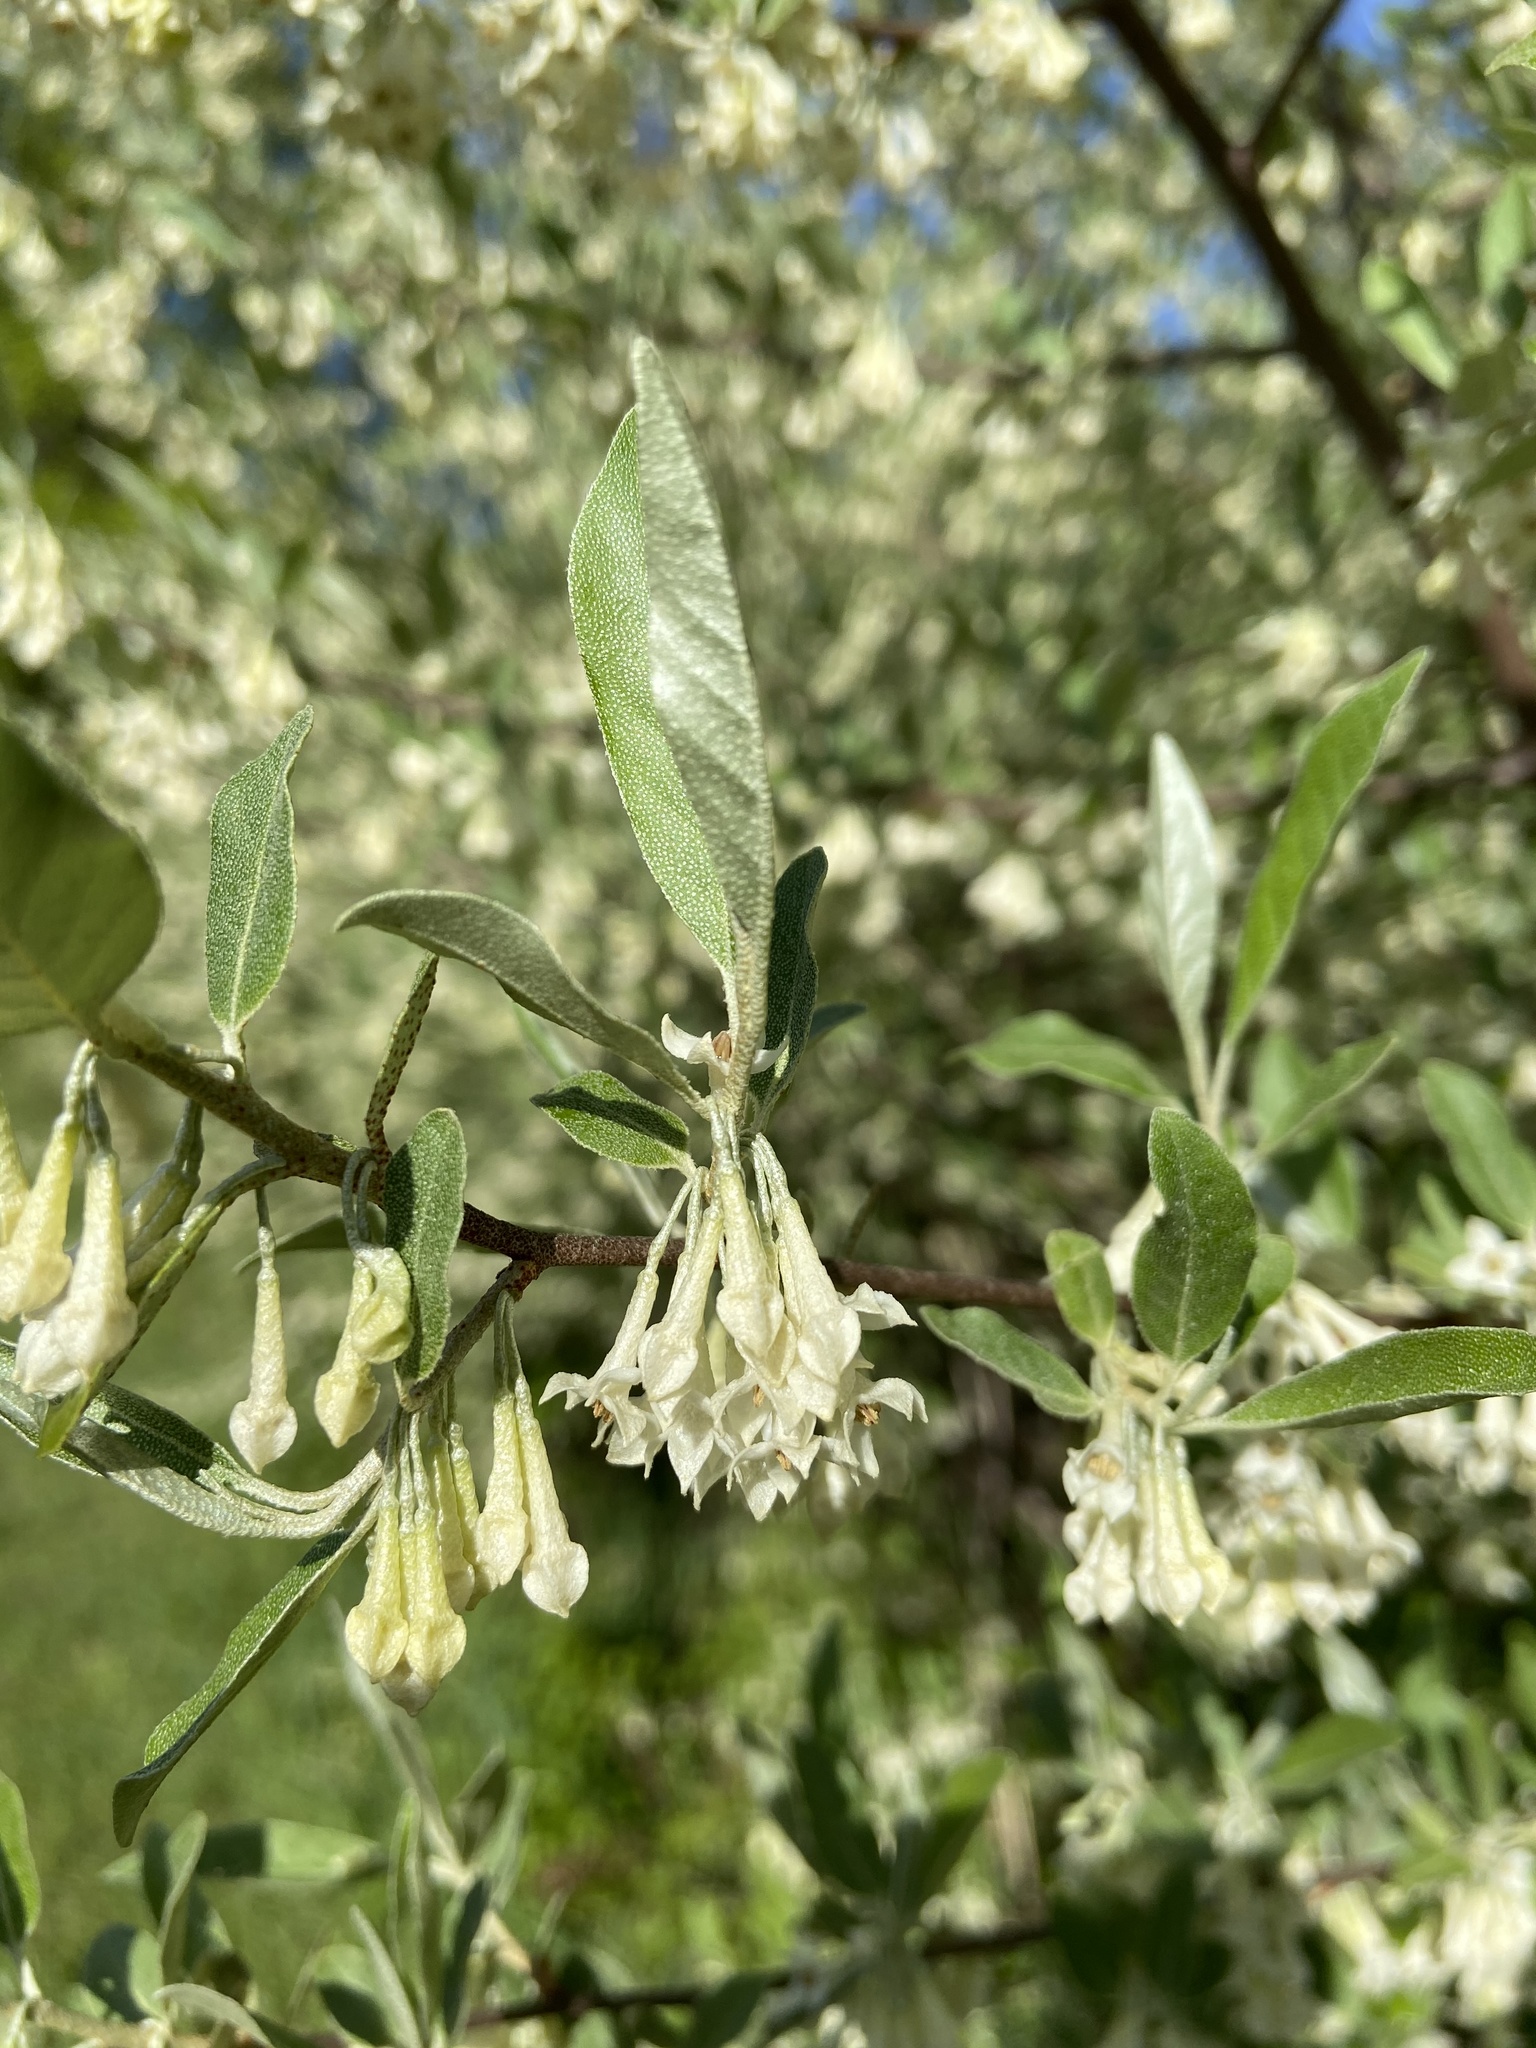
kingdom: Plantae
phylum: Tracheophyta
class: Magnoliopsida
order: Rosales
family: Elaeagnaceae
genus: Elaeagnus
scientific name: Elaeagnus umbellata
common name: Autumn olive
